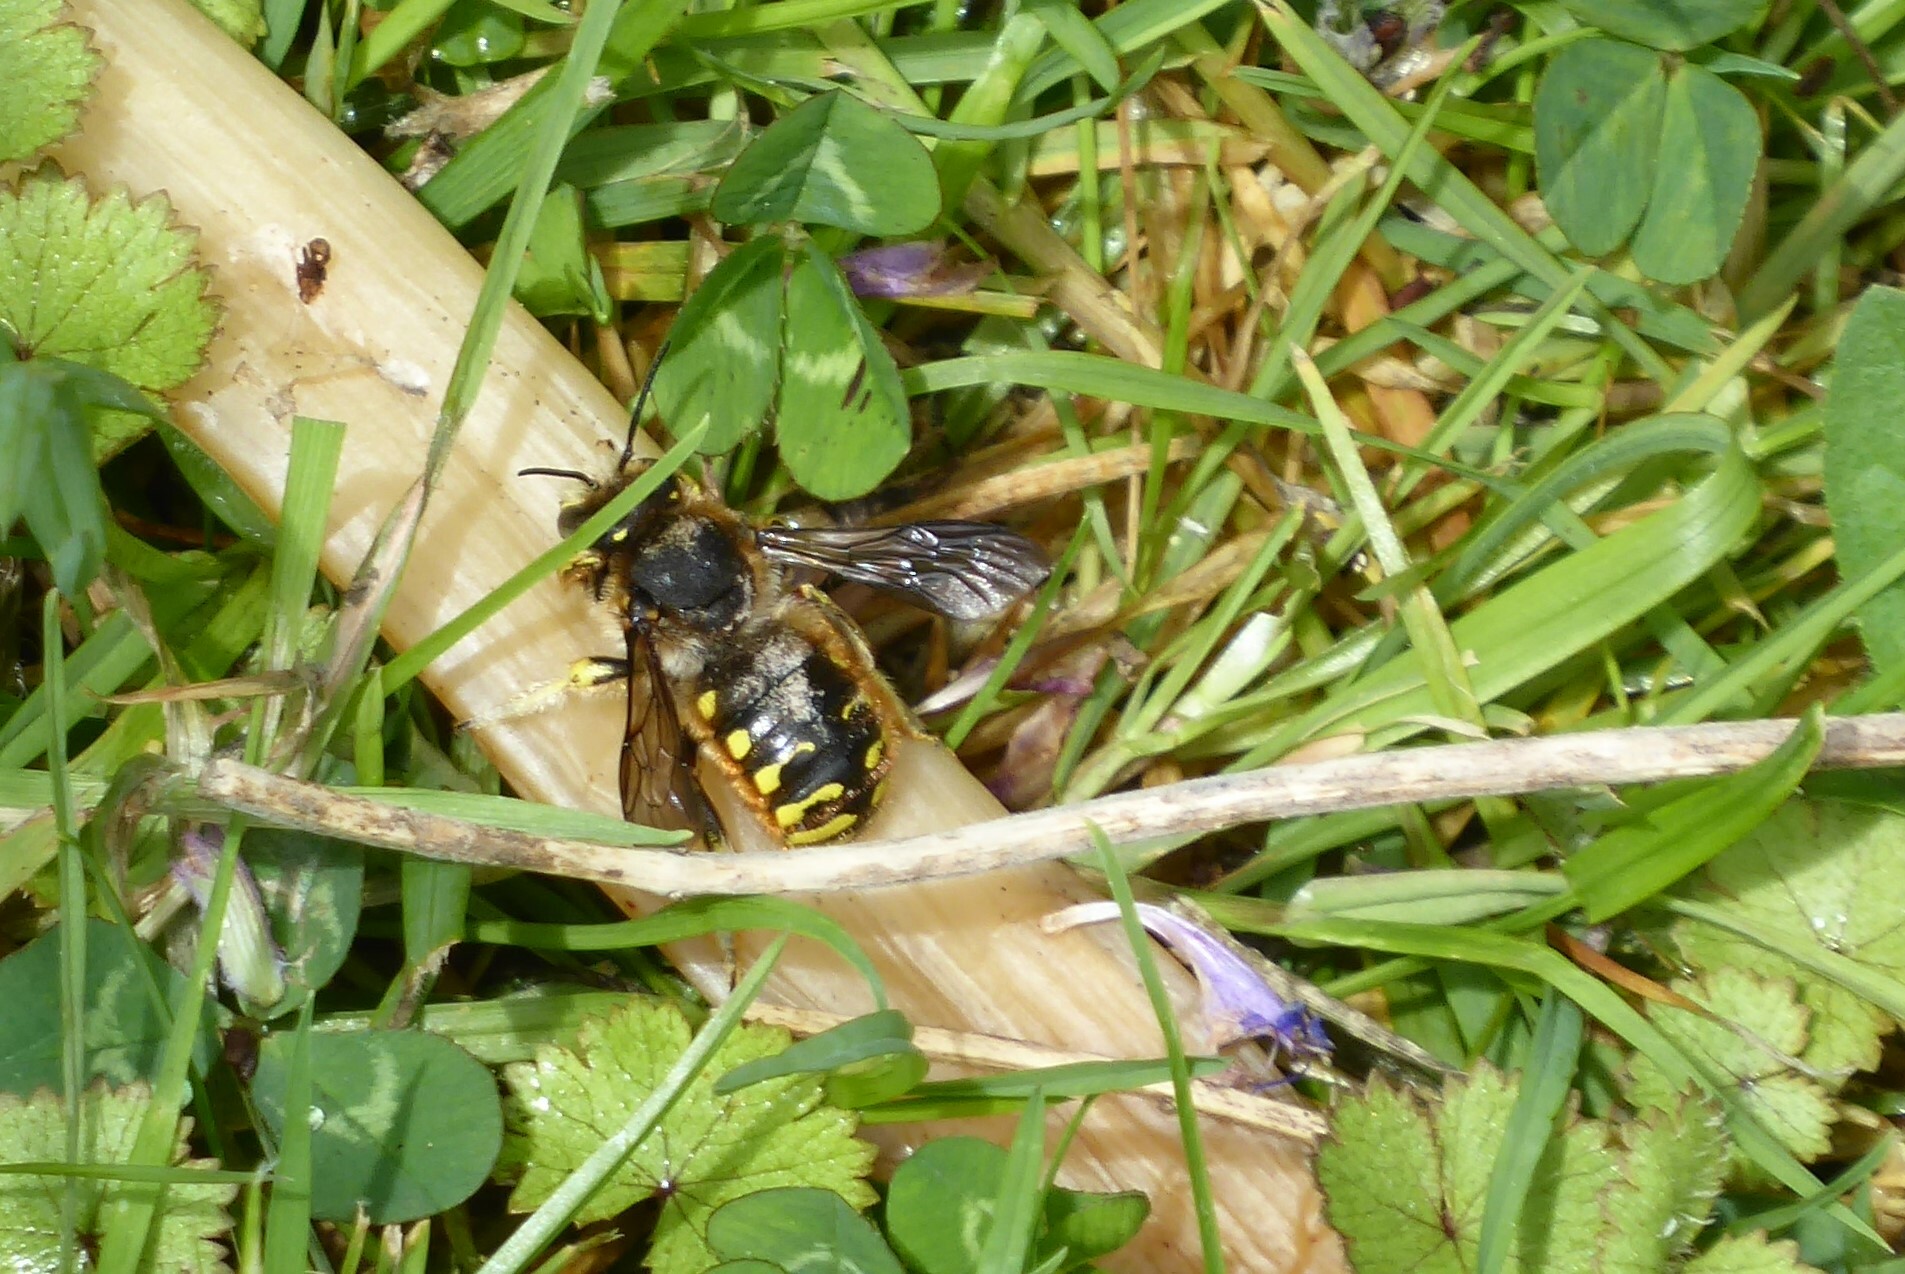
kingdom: Animalia
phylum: Arthropoda
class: Insecta
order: Hymenoptera
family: Megachilidae
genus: Anthidium
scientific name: Anthidium manicatum
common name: Wool carder bee
